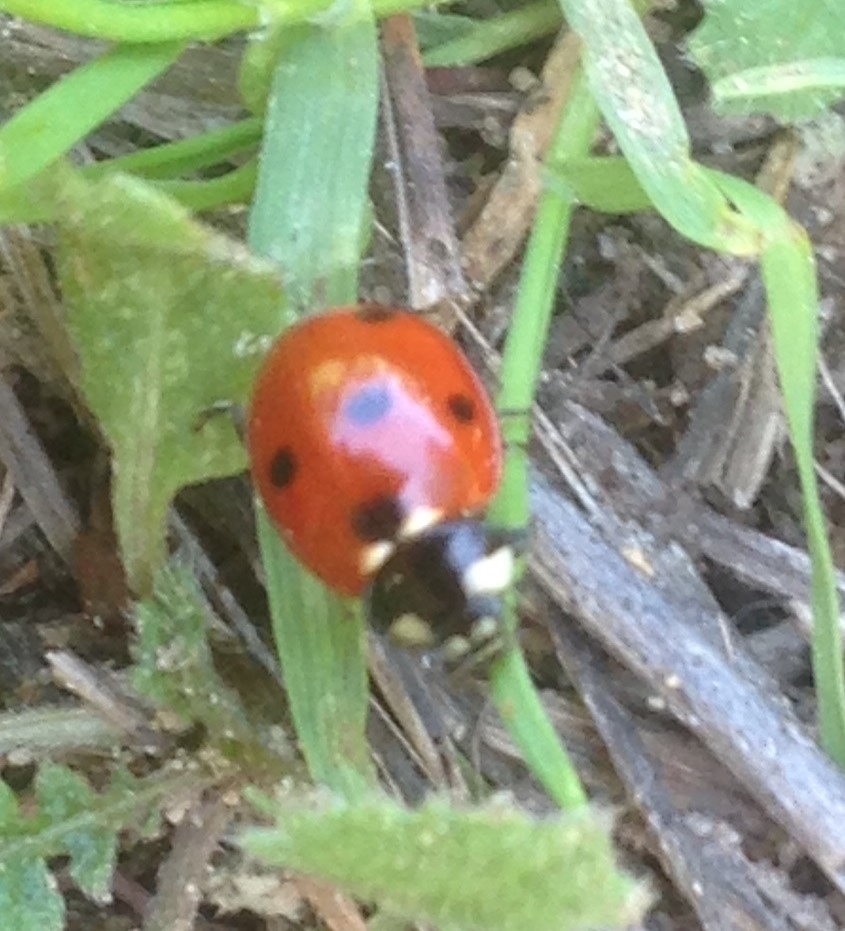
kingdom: Animalia
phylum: Arthropoda
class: Insecta
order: Coleoptera
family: Coccinellidae
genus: Coccinella
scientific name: Coccinella septempunctata
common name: Sevenspotted lady beetle
